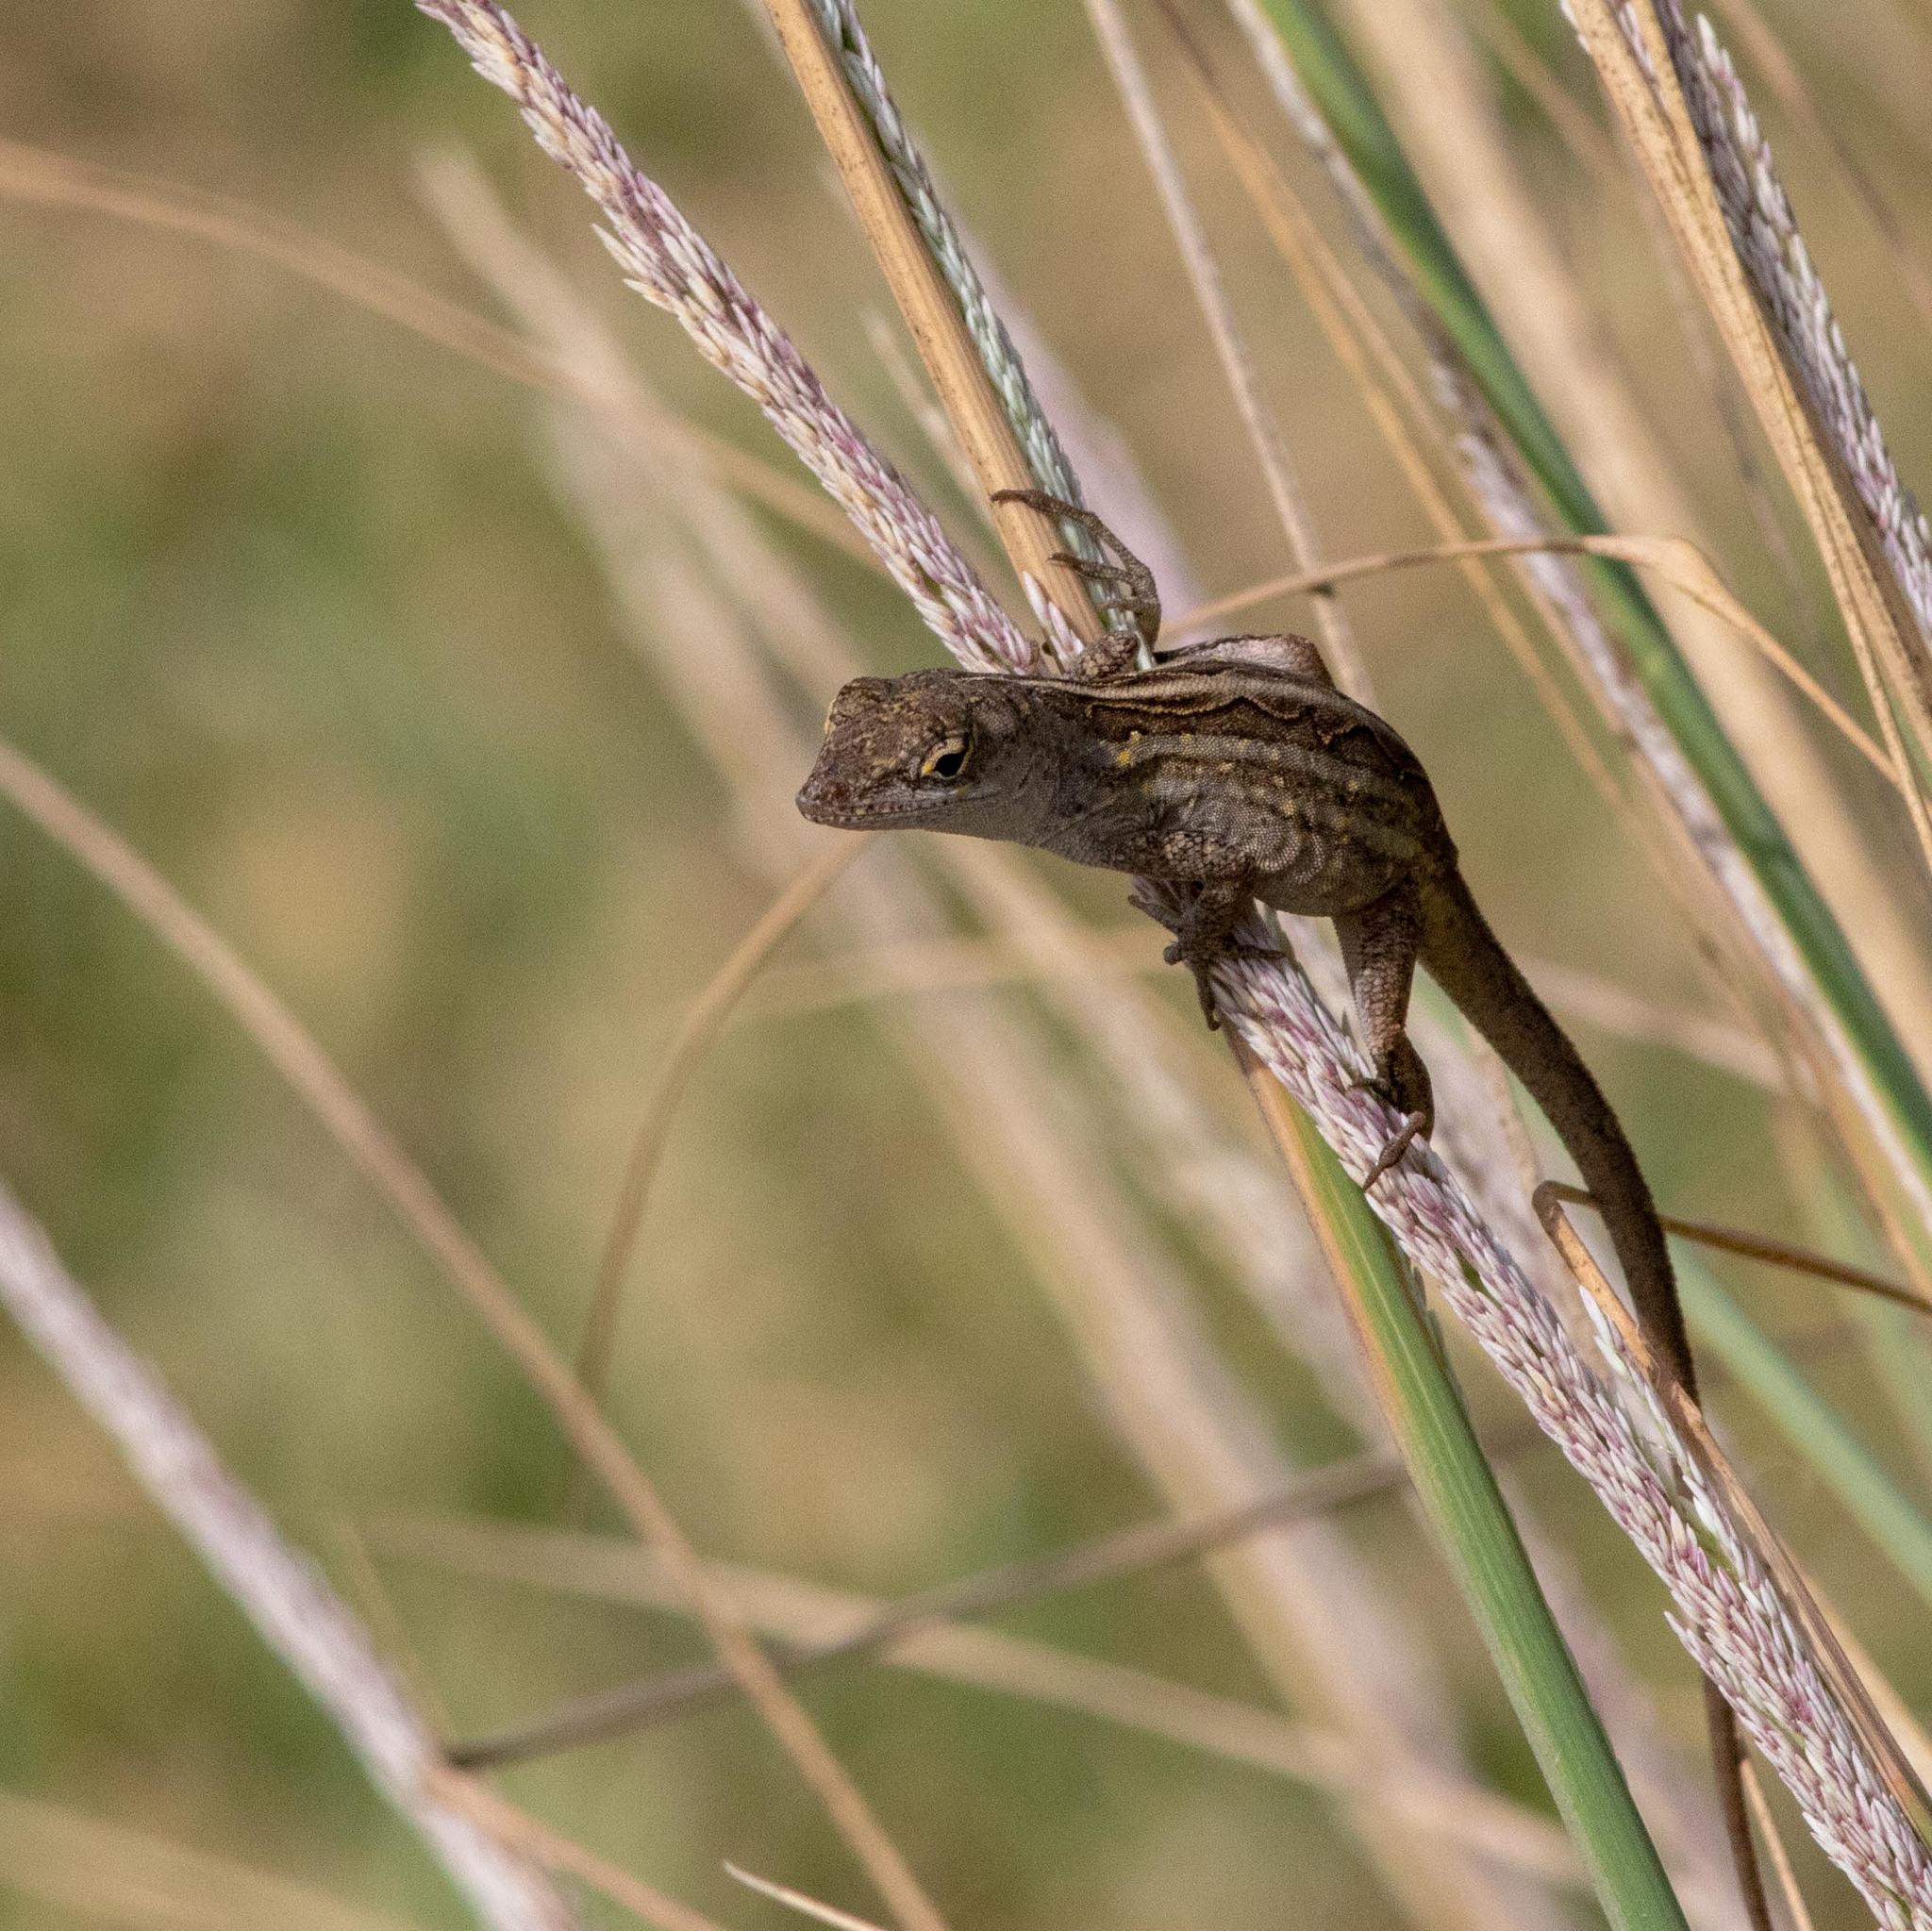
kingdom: Animalia
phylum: Chordata
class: Squamata
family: Dactyloidae
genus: Anolis
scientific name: Anolis sagrei
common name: Brown anole
